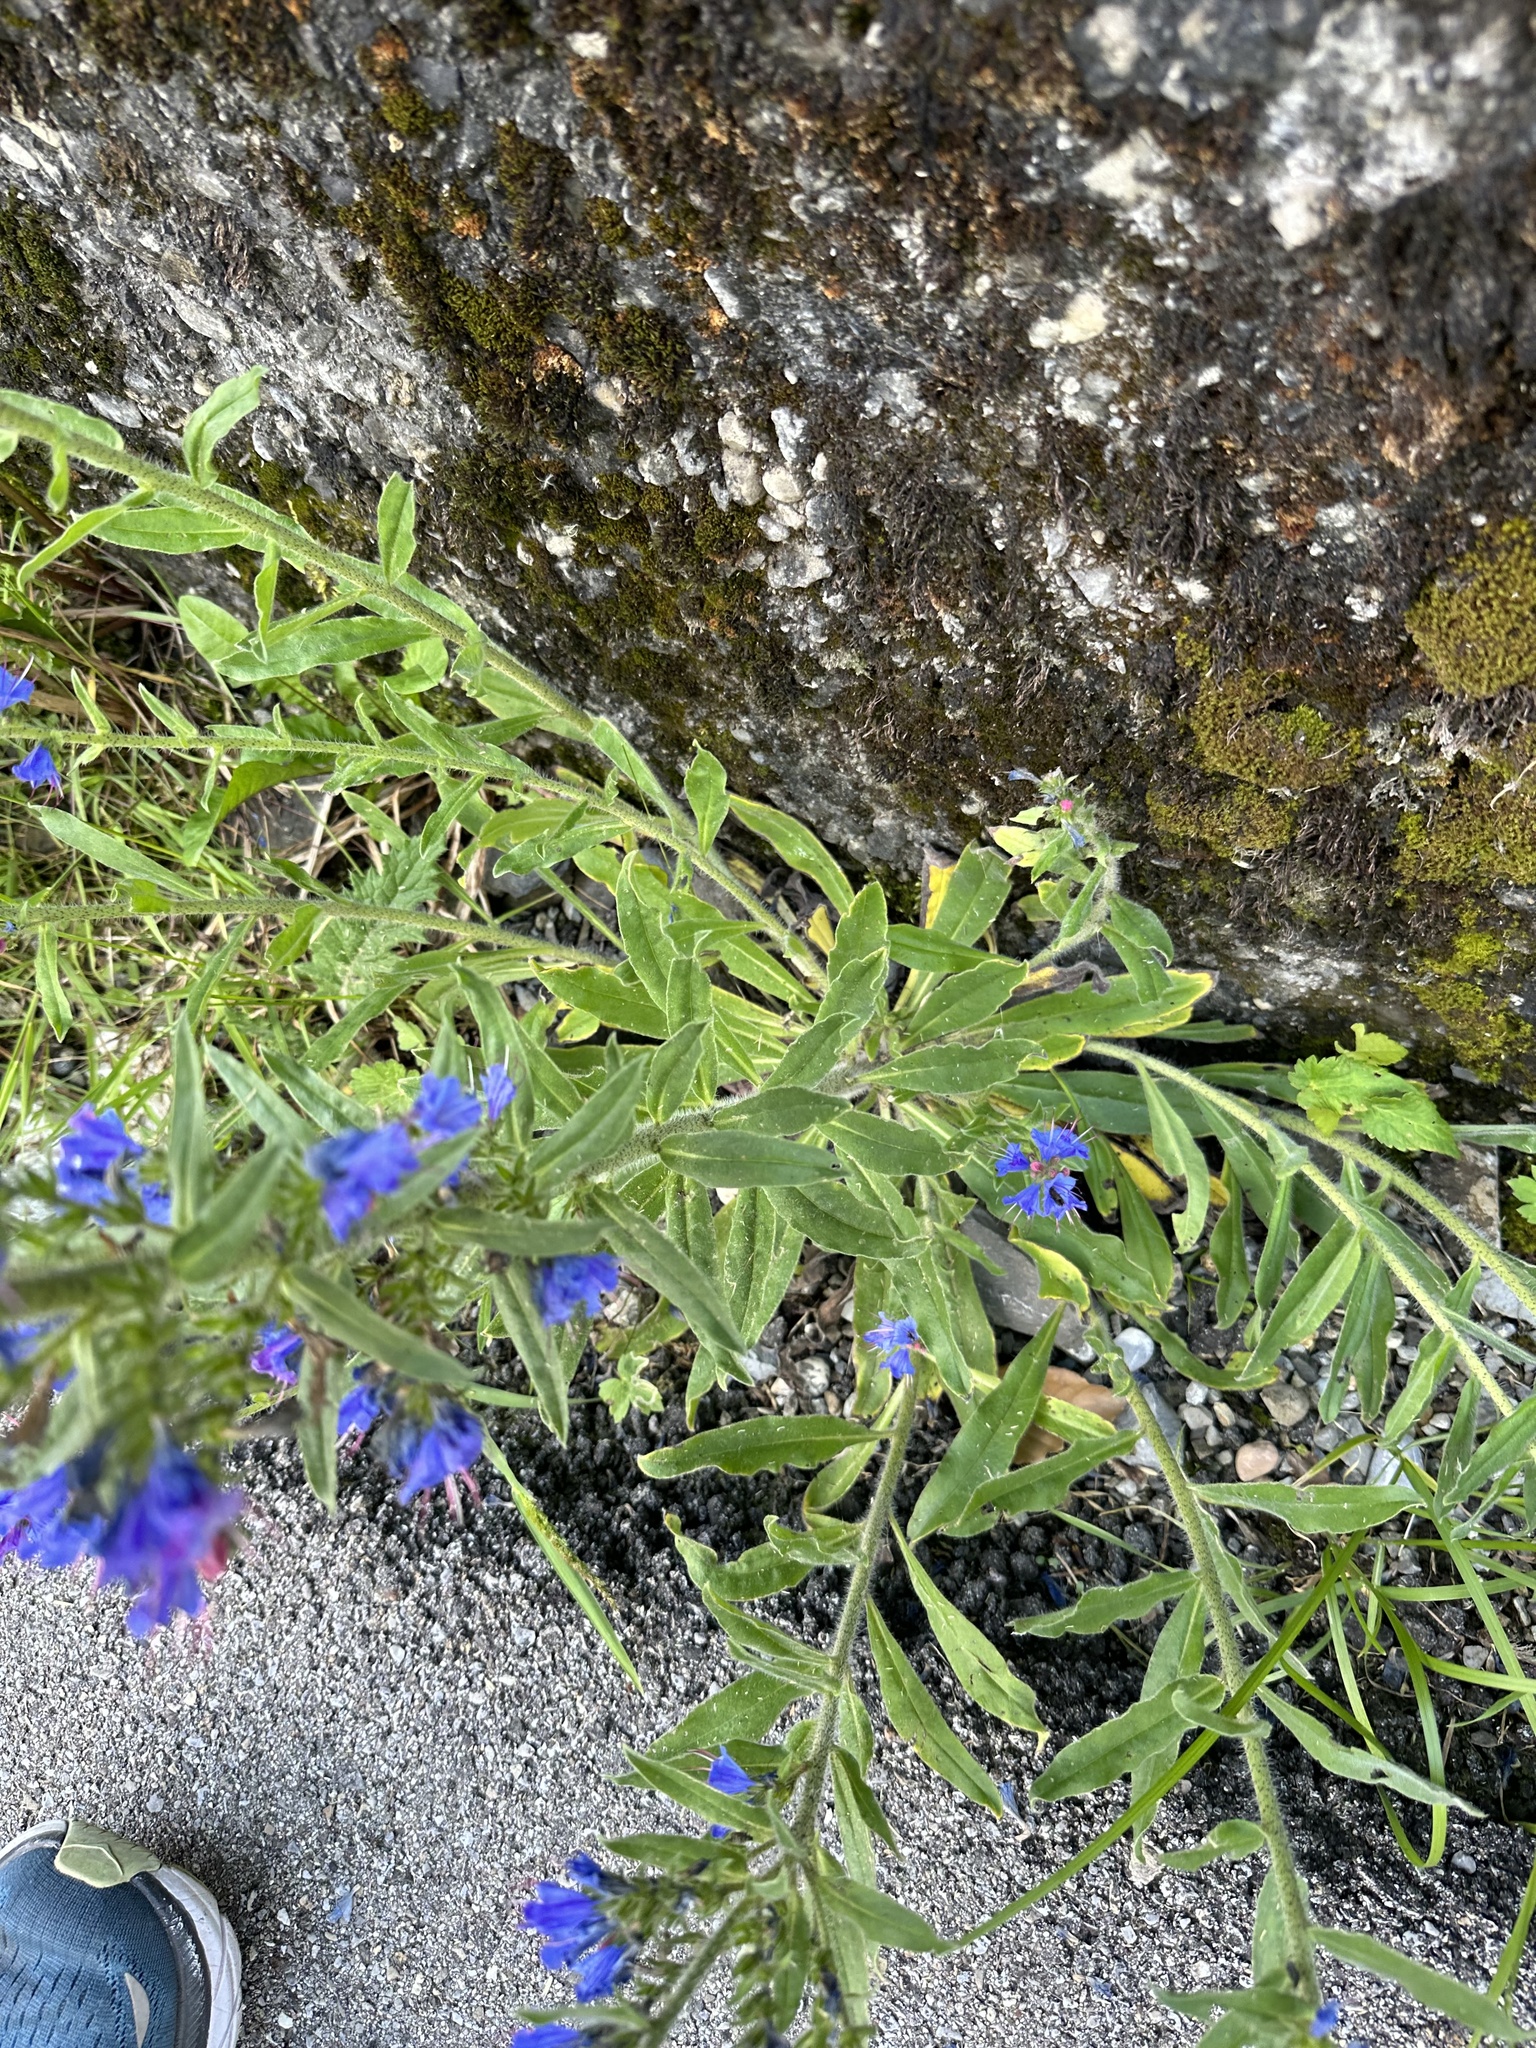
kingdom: Plantae
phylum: Tracheophyta
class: Magnoliopsida
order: Boraginales
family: Boraginaceae
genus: Echium
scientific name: Echium vulgare
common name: Common viper's bugloss
